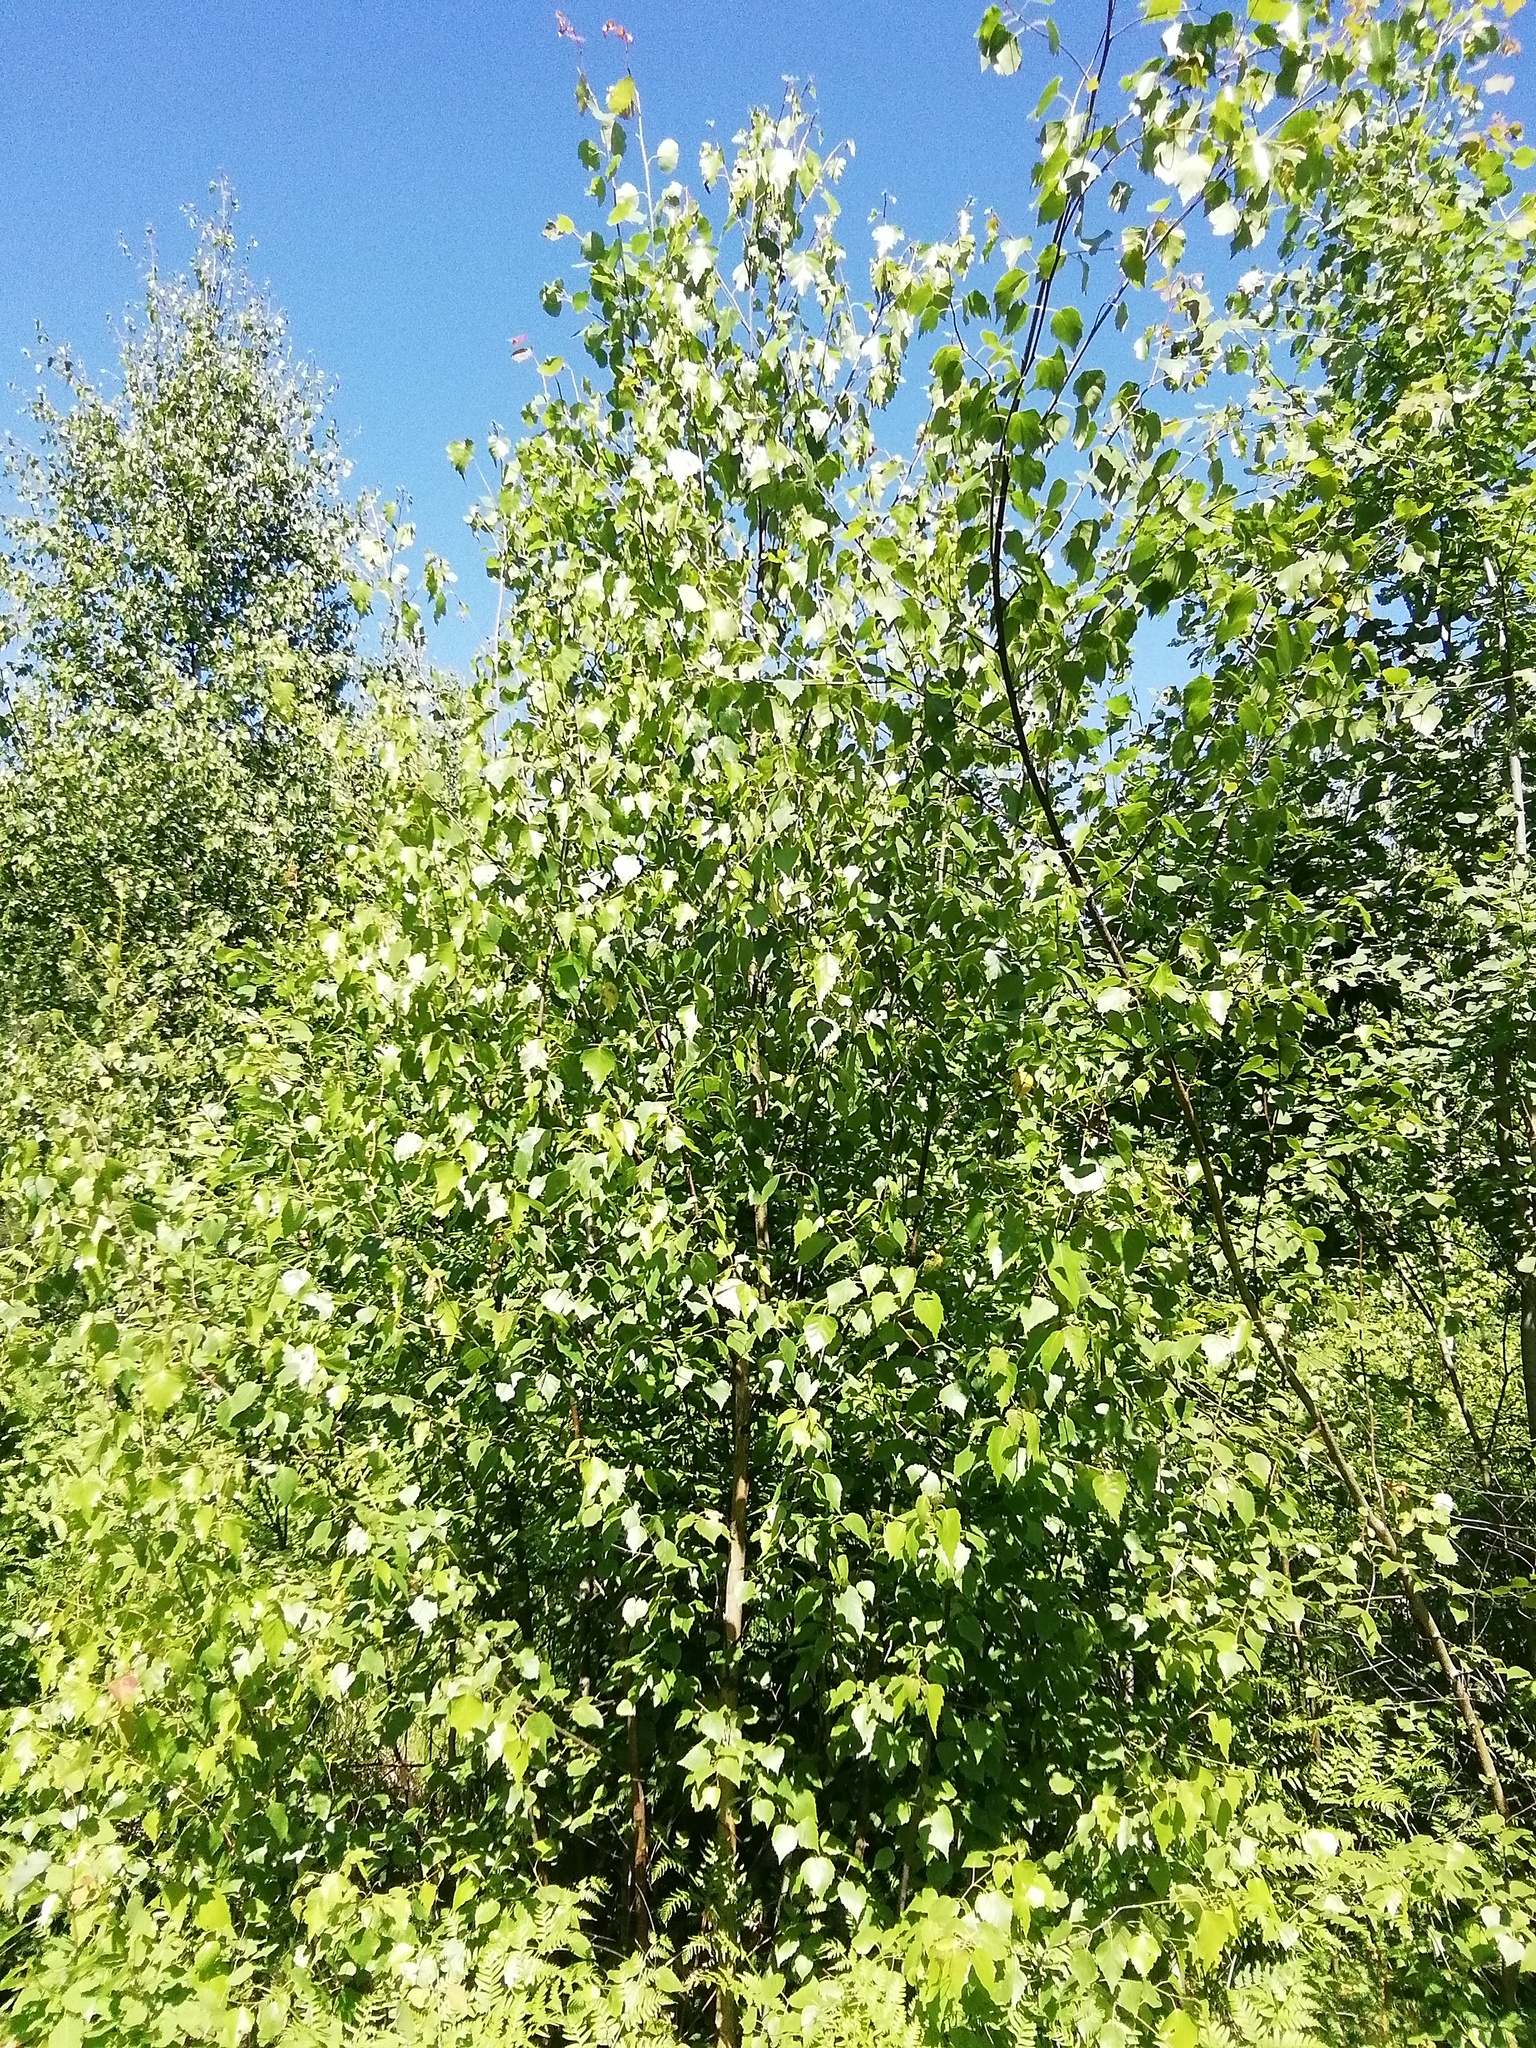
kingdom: Plantae
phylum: Tracheophyta
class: Magnoliopsida
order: Fagales
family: Betulaceae
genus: Betula
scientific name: Betula pendula
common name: Silver birch
